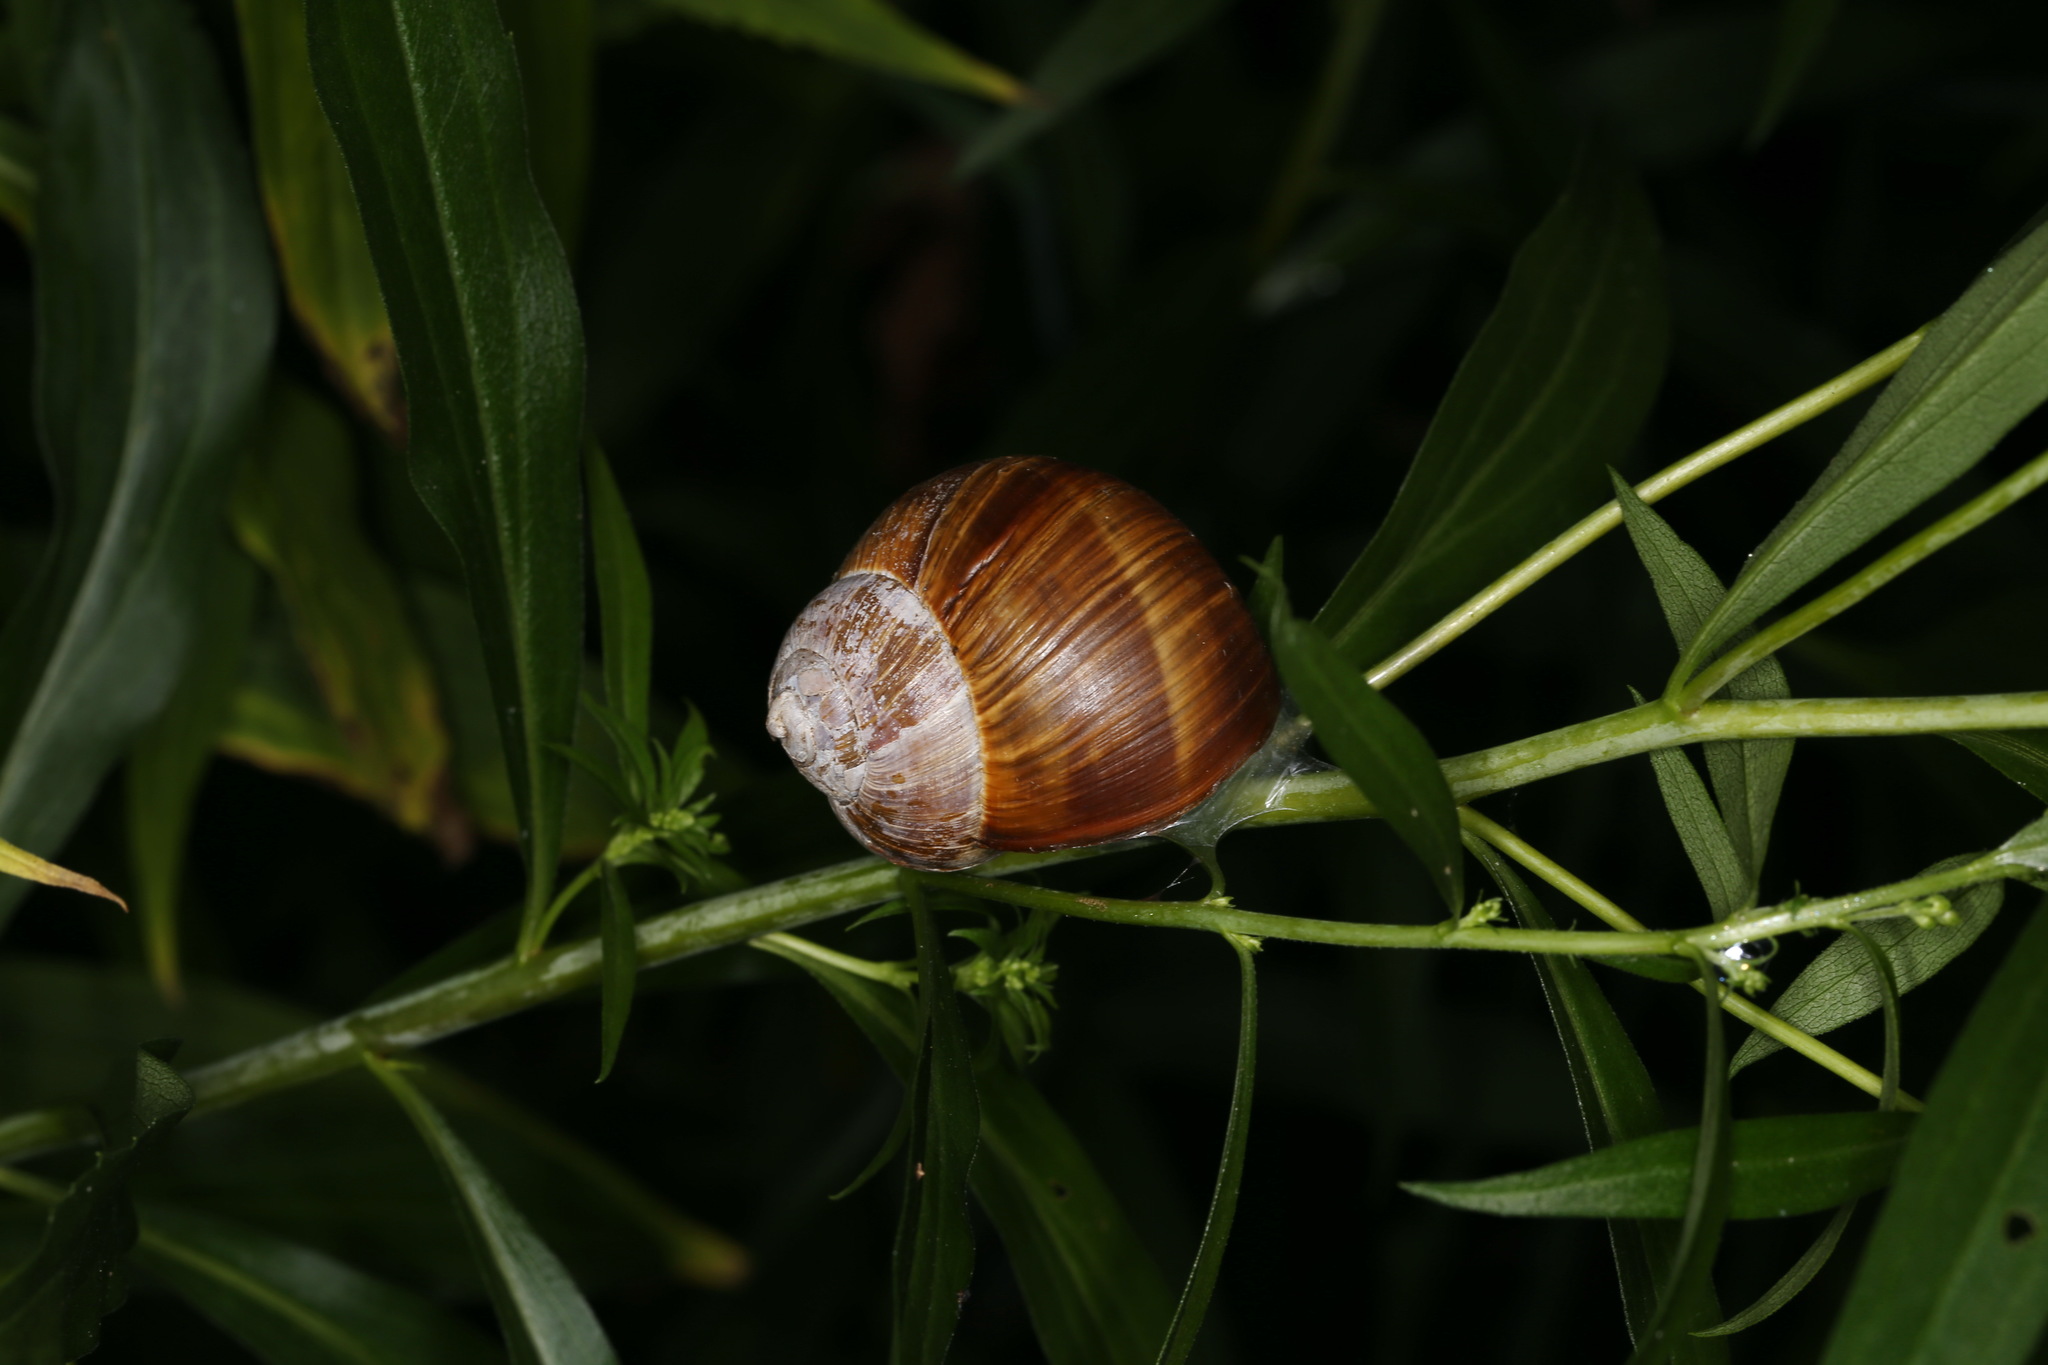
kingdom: Animalia
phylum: Mollusca
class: Gastropoda
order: Stylommatophora
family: Helicidae
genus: Helix
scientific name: Helix pomatia
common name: Roman snail
